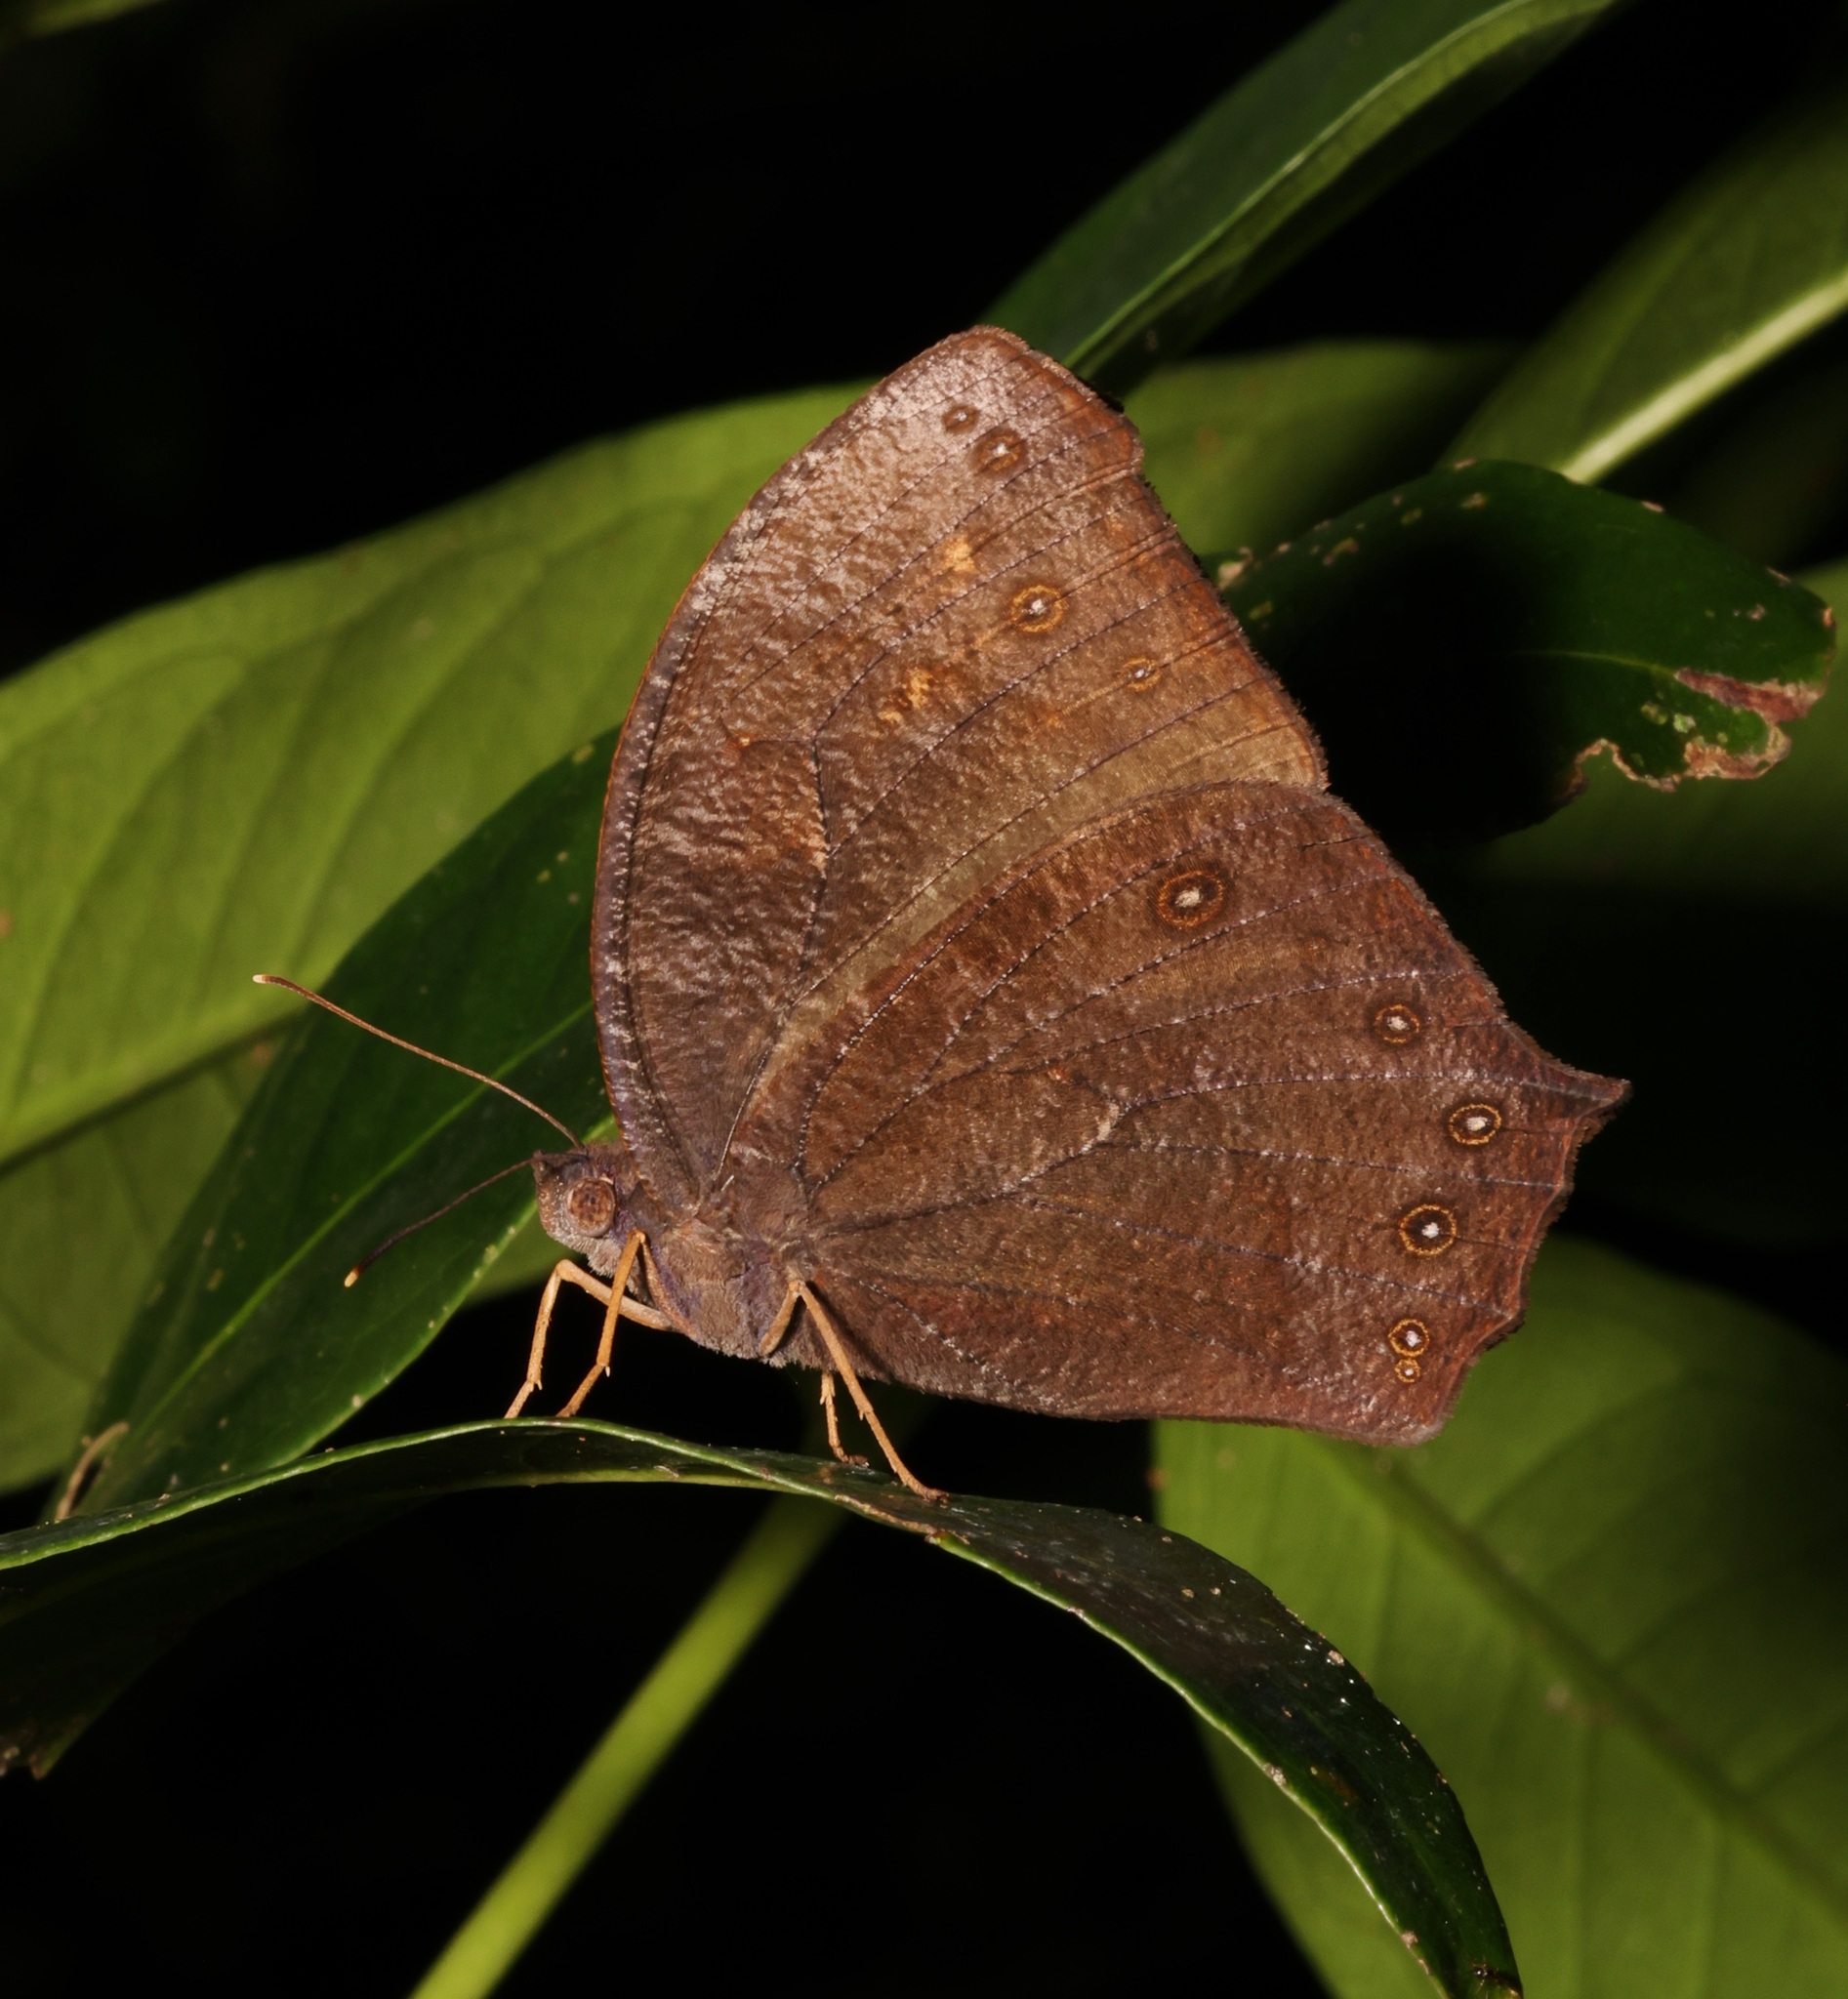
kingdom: Animalia
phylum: Arthropoda
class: Insecta
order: Lepidoptera
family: Nymphalidae
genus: Melanitis
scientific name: Melanitis phedima
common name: Dark evening brown
